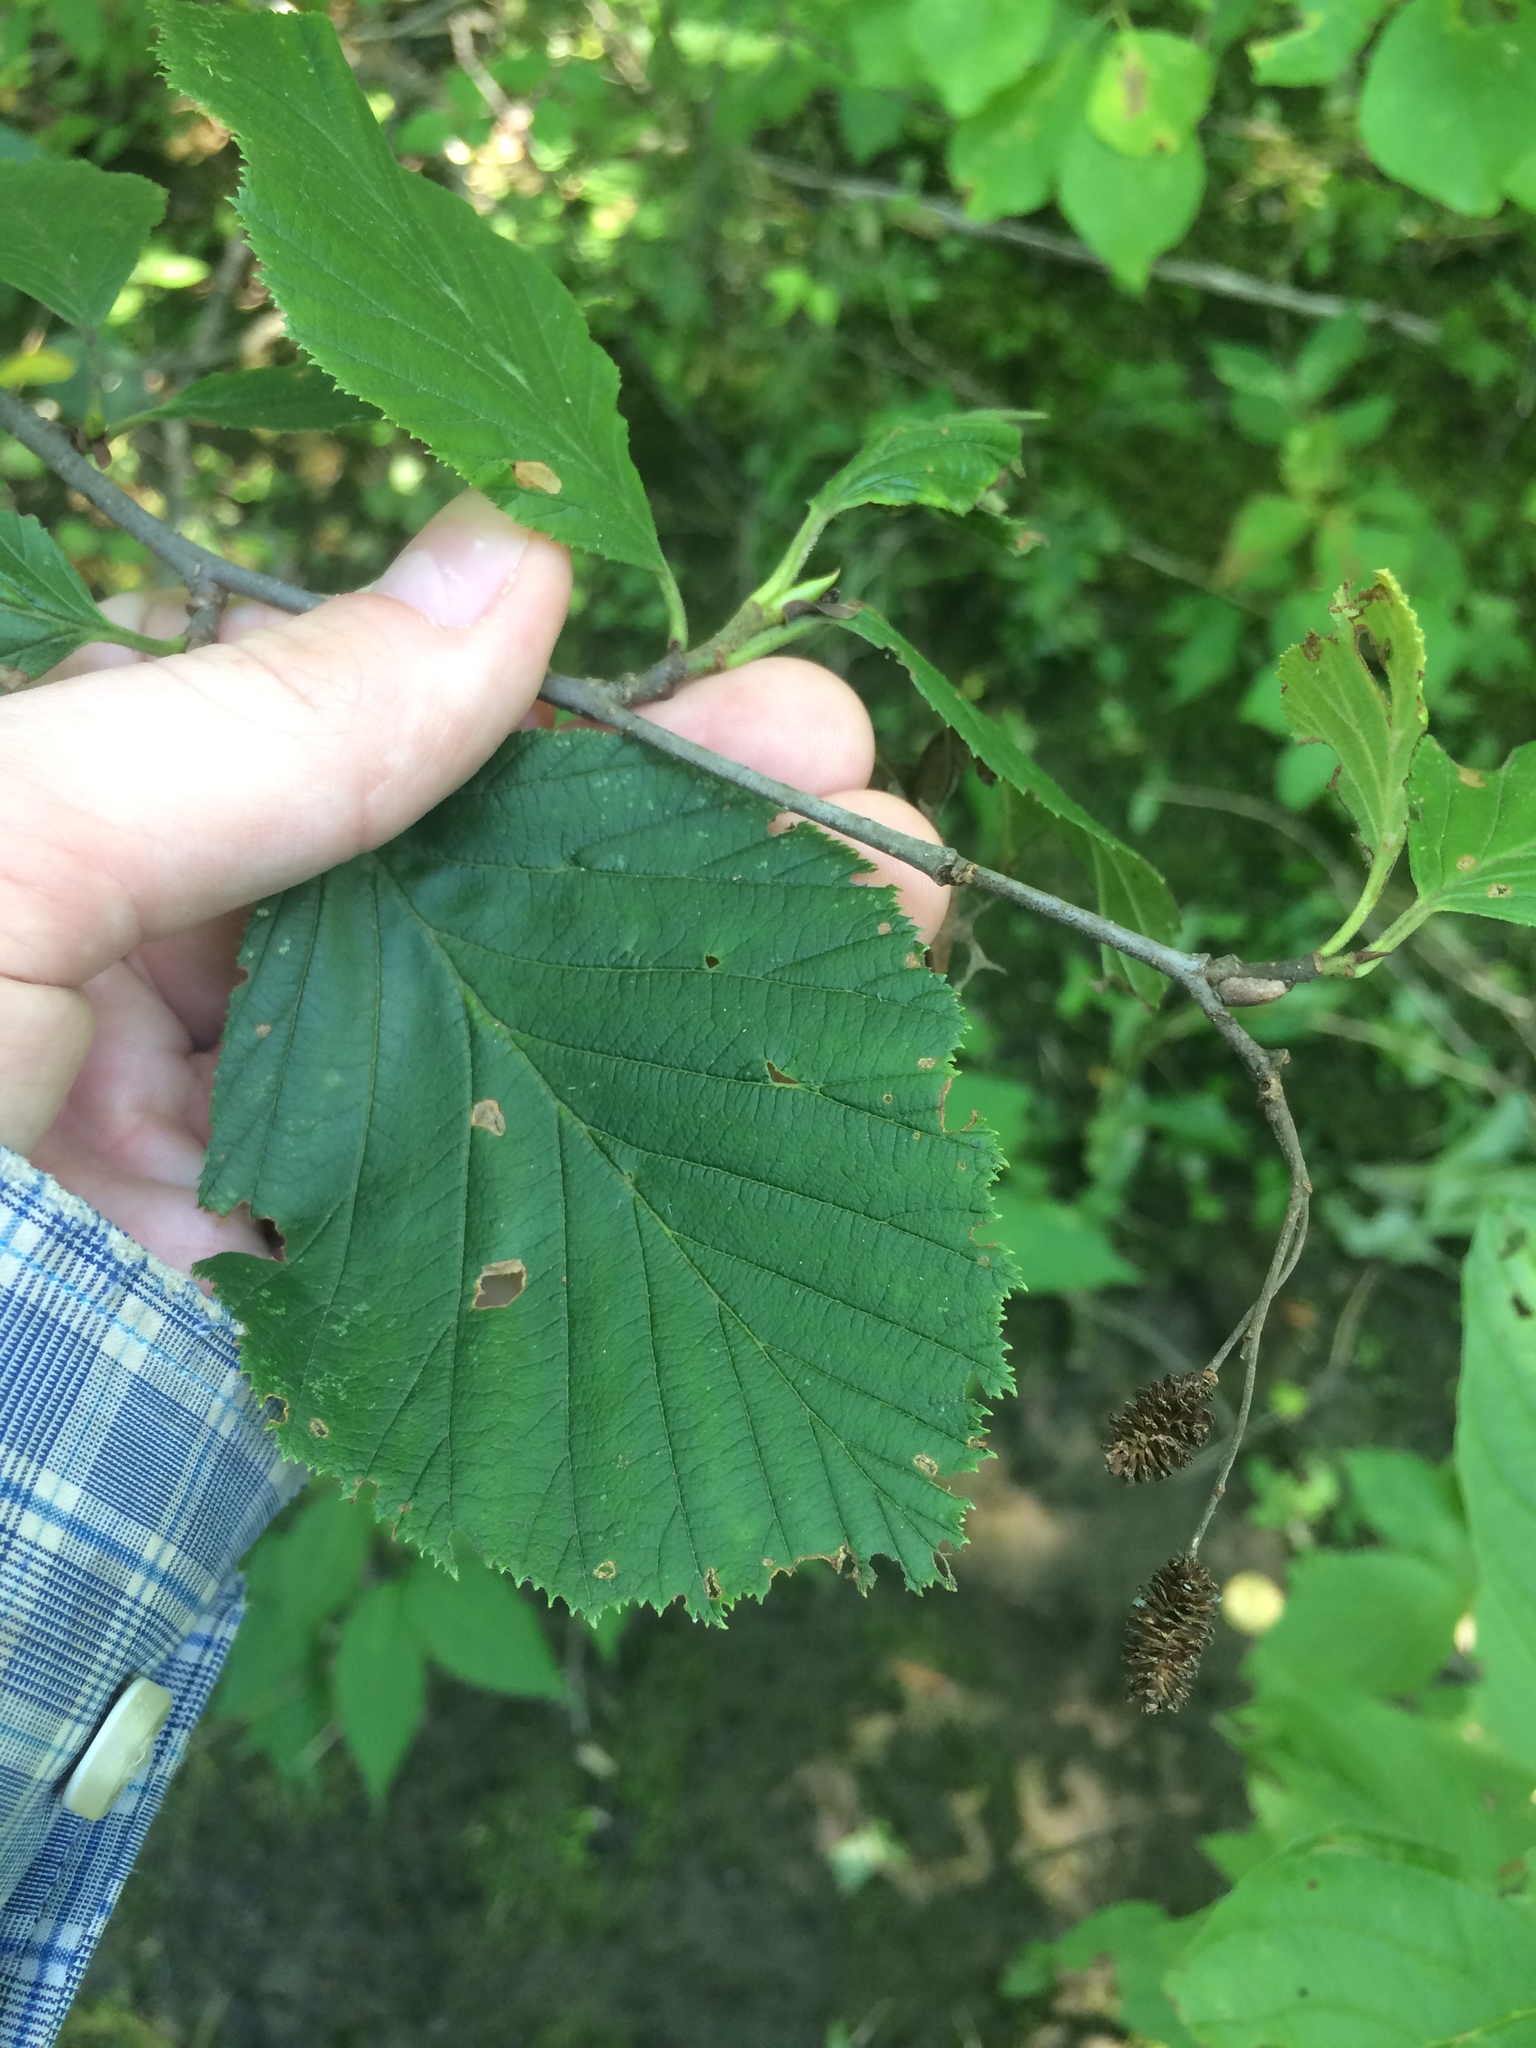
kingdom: Plantae
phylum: Tracheophyta
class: Magnoliopsida
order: Fagales
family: Betulaceae
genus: Alnus
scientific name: Alnus alnobetula
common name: Green alder
